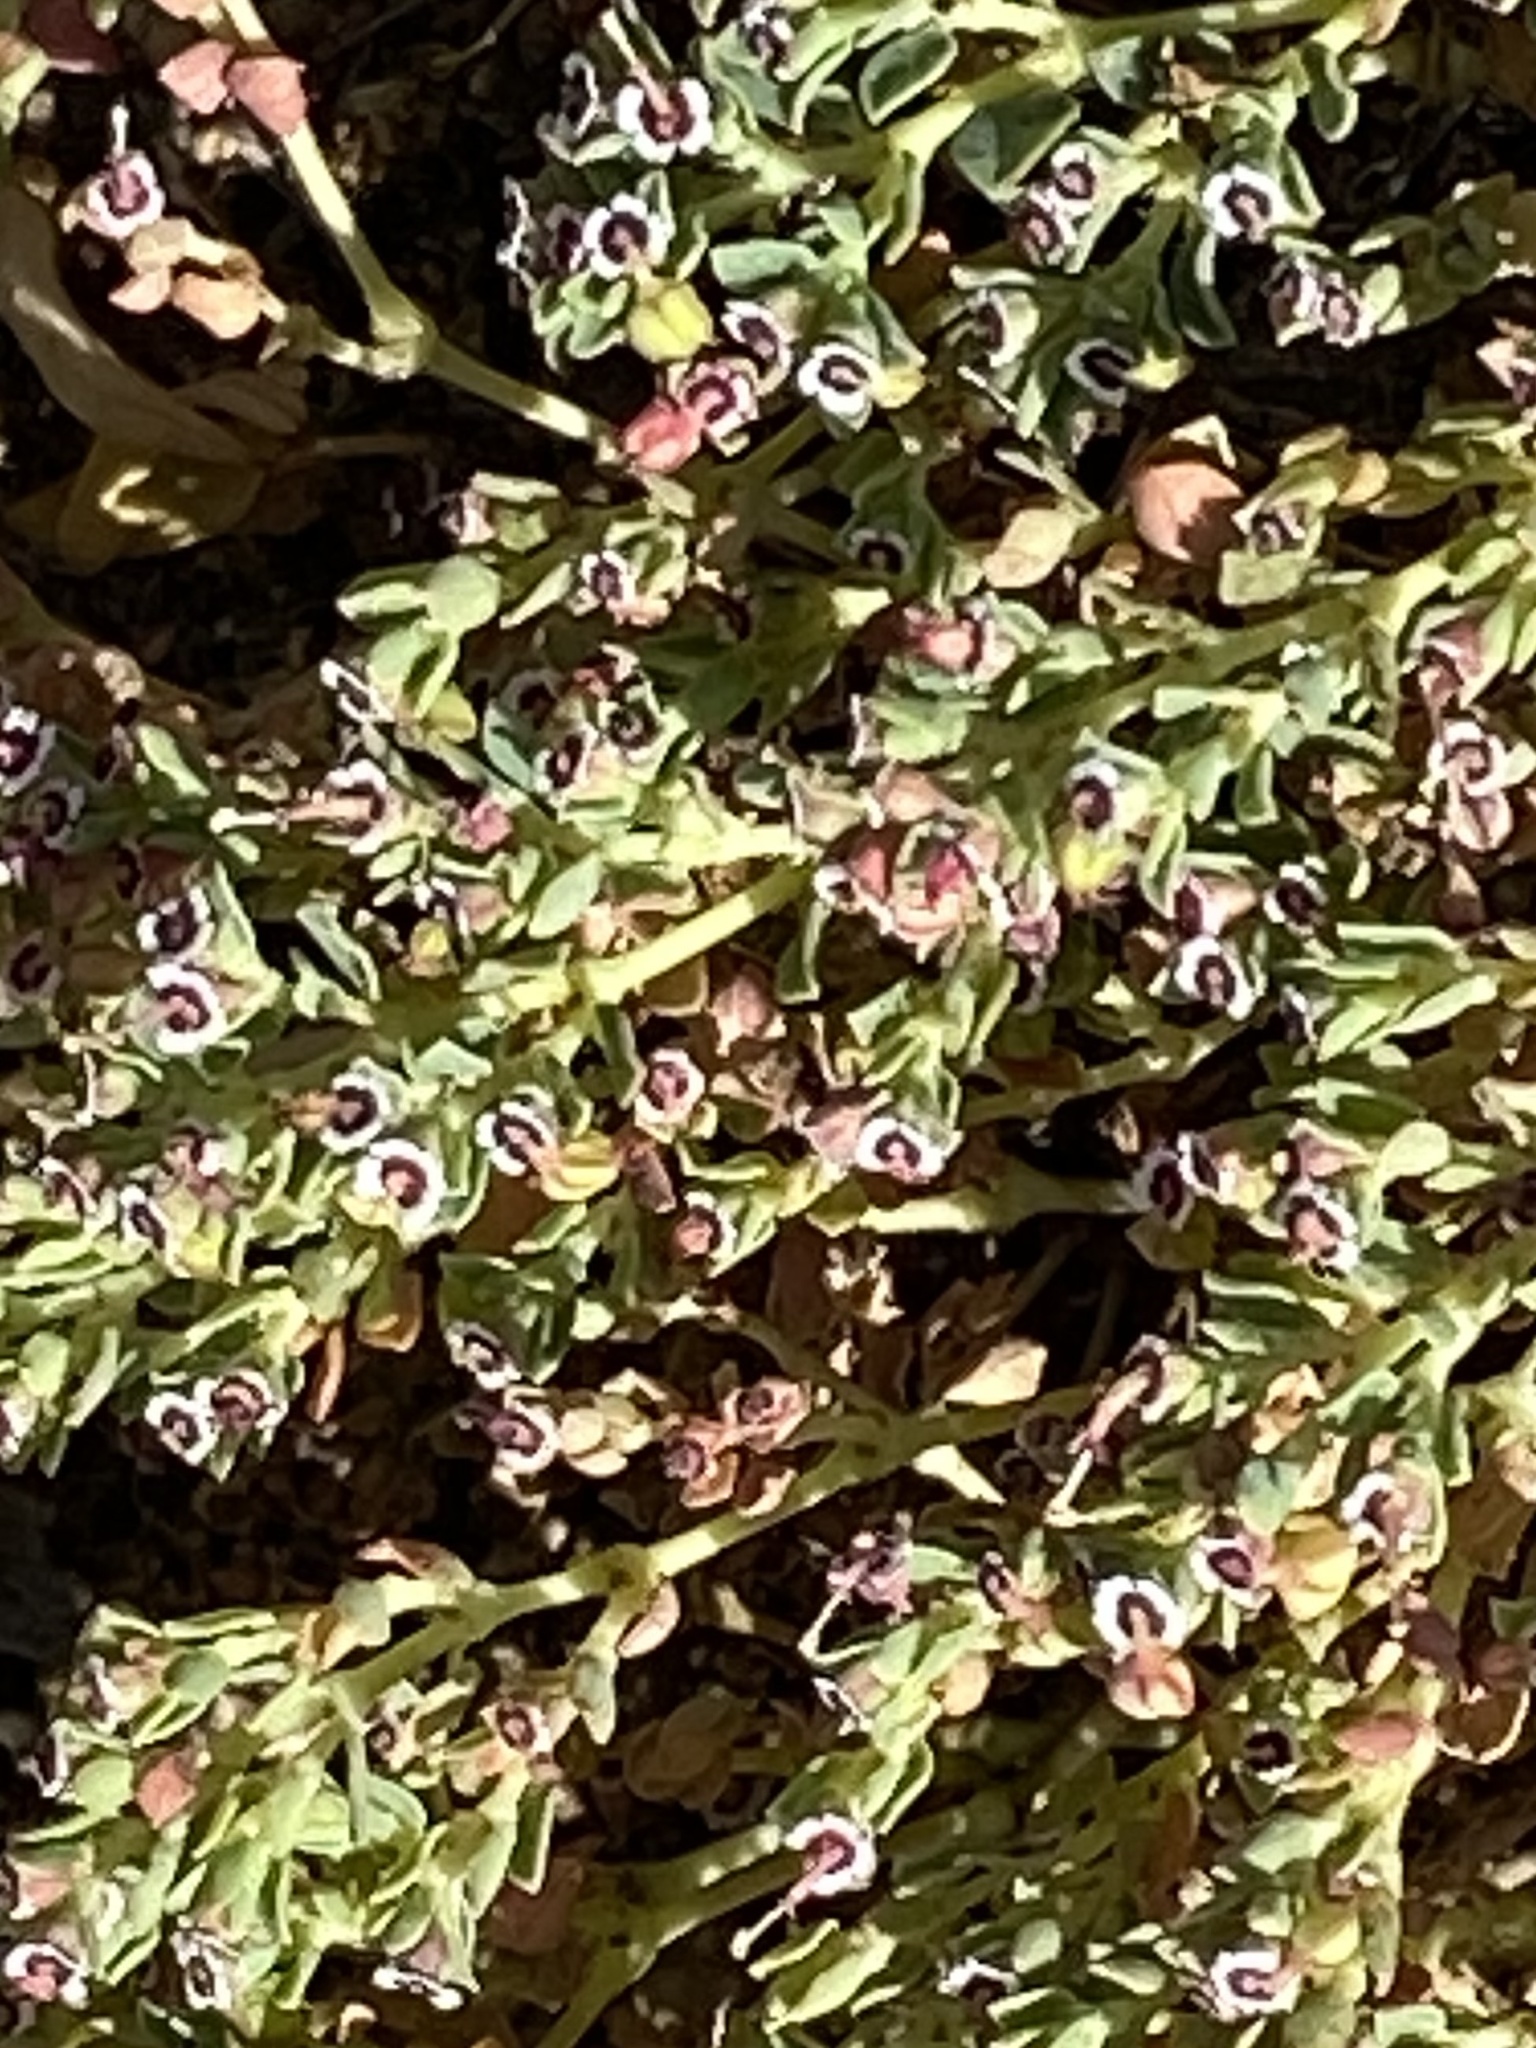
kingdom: Plantae
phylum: Tracheophyta
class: Magnoliopsida
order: Malpighiales
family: Euphorbiaceae
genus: Euphorbia
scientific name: Euphorbia polycarpa
